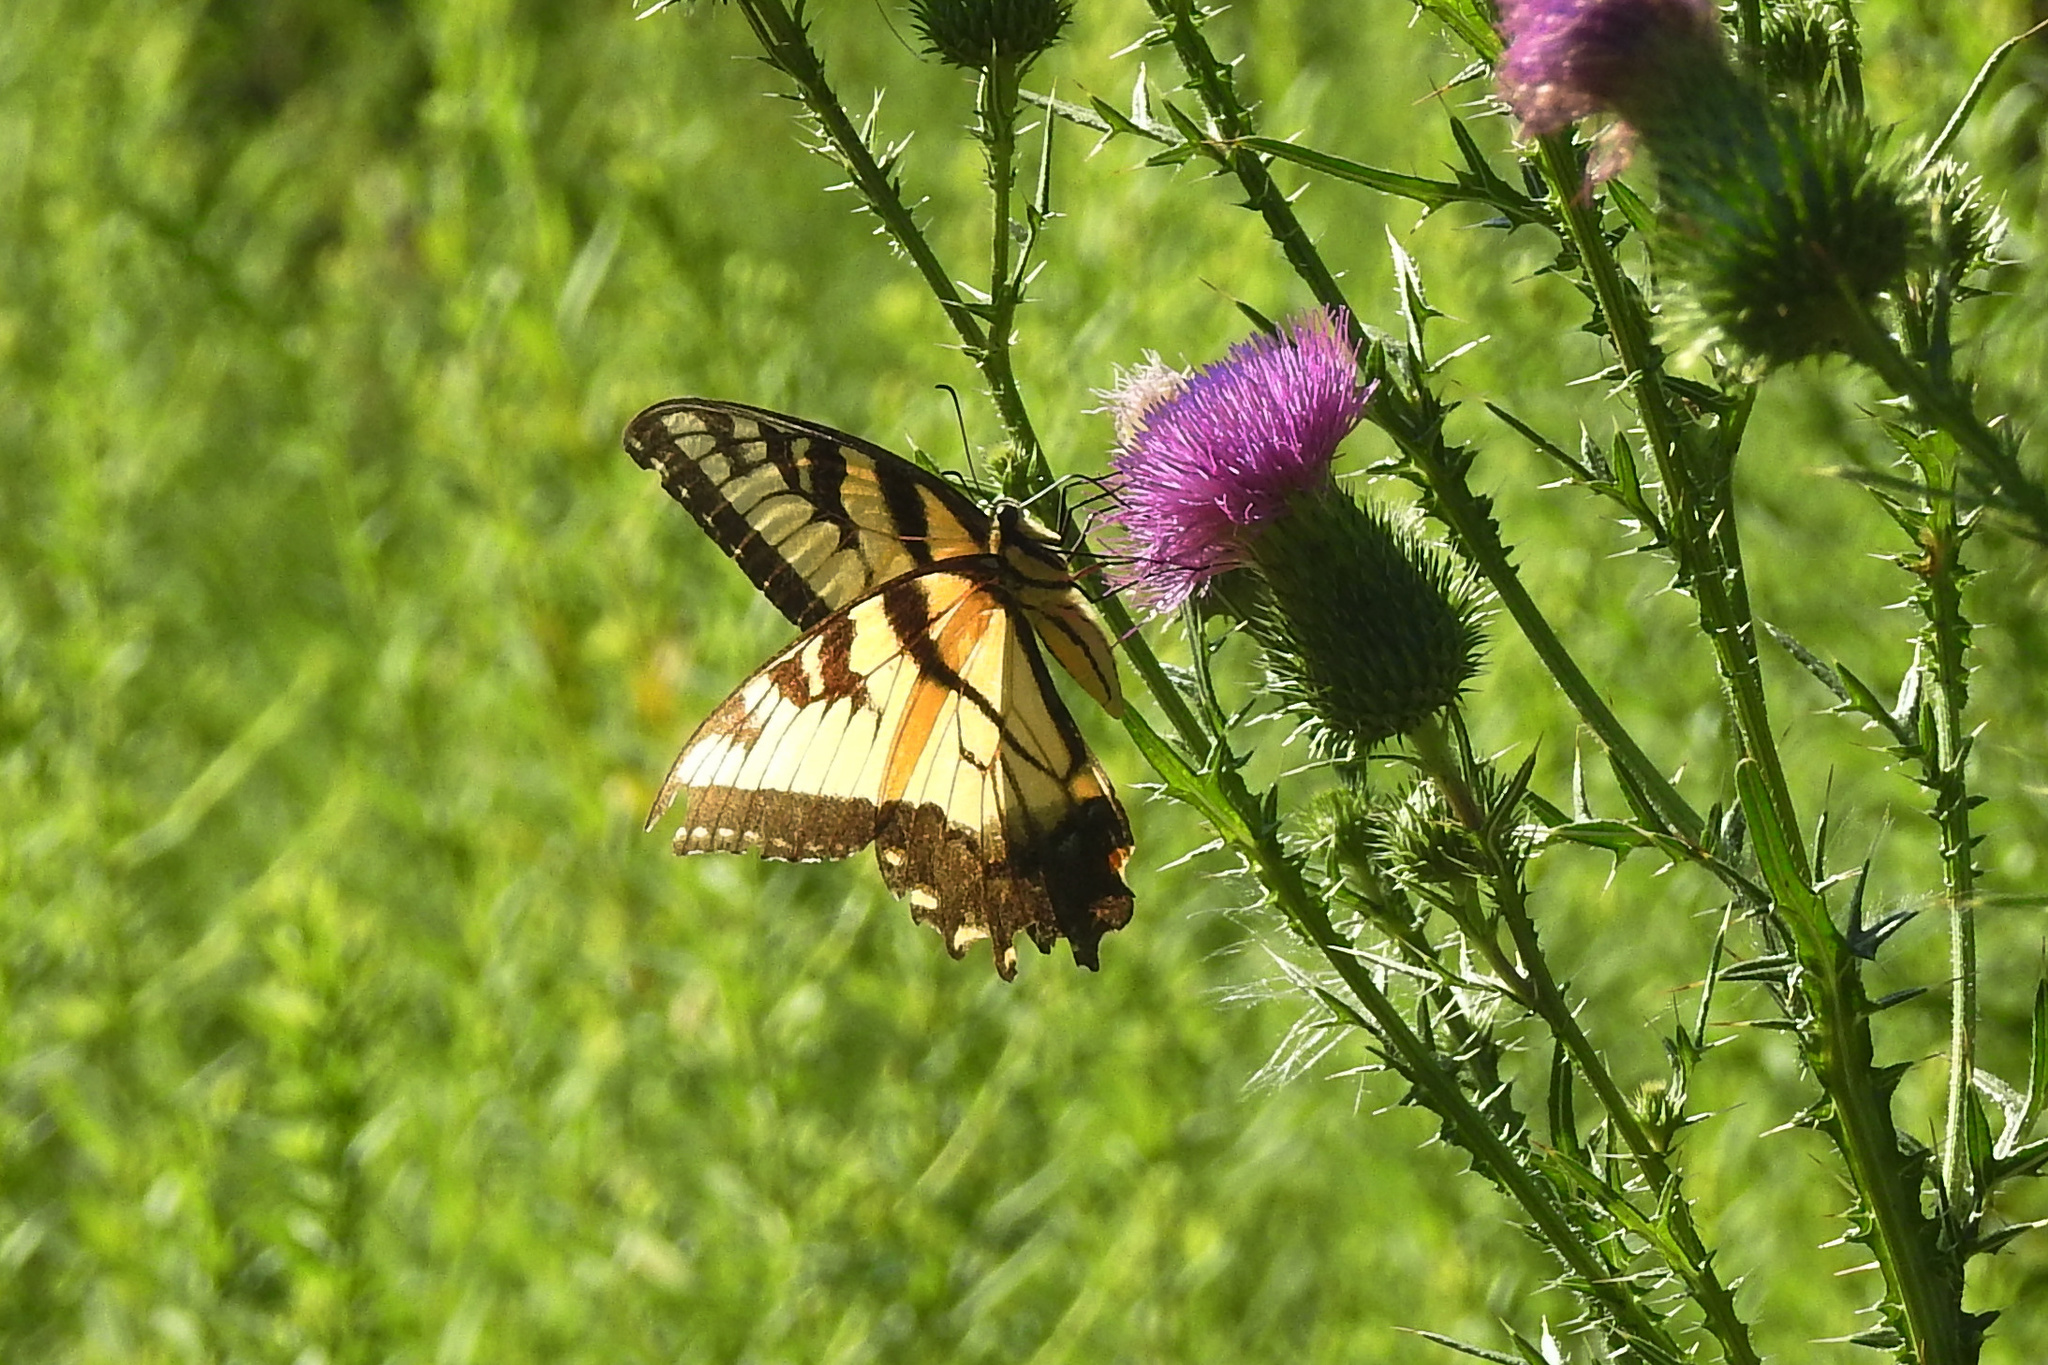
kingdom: Animalia
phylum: Arthropoda
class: Insecta
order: Lepidoptera
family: Papilionidae
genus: Papilio
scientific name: Papilio glaucus
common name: Tiger swallowtail
